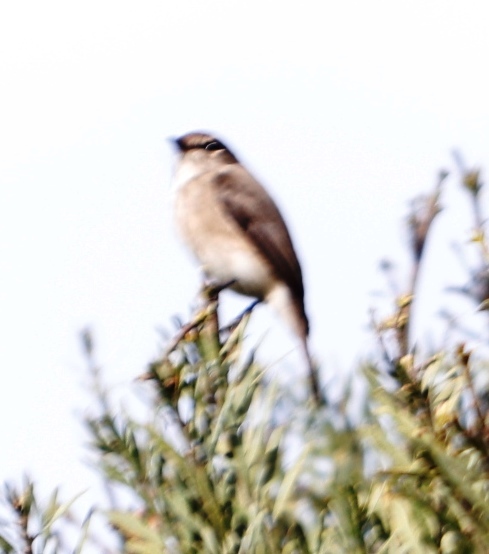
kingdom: Animalia
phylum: Chordata
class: Aves
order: Passeriformes
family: Muscicapidae
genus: Muscicapa
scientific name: Muscicapa adusta
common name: African dusky flycatcher
